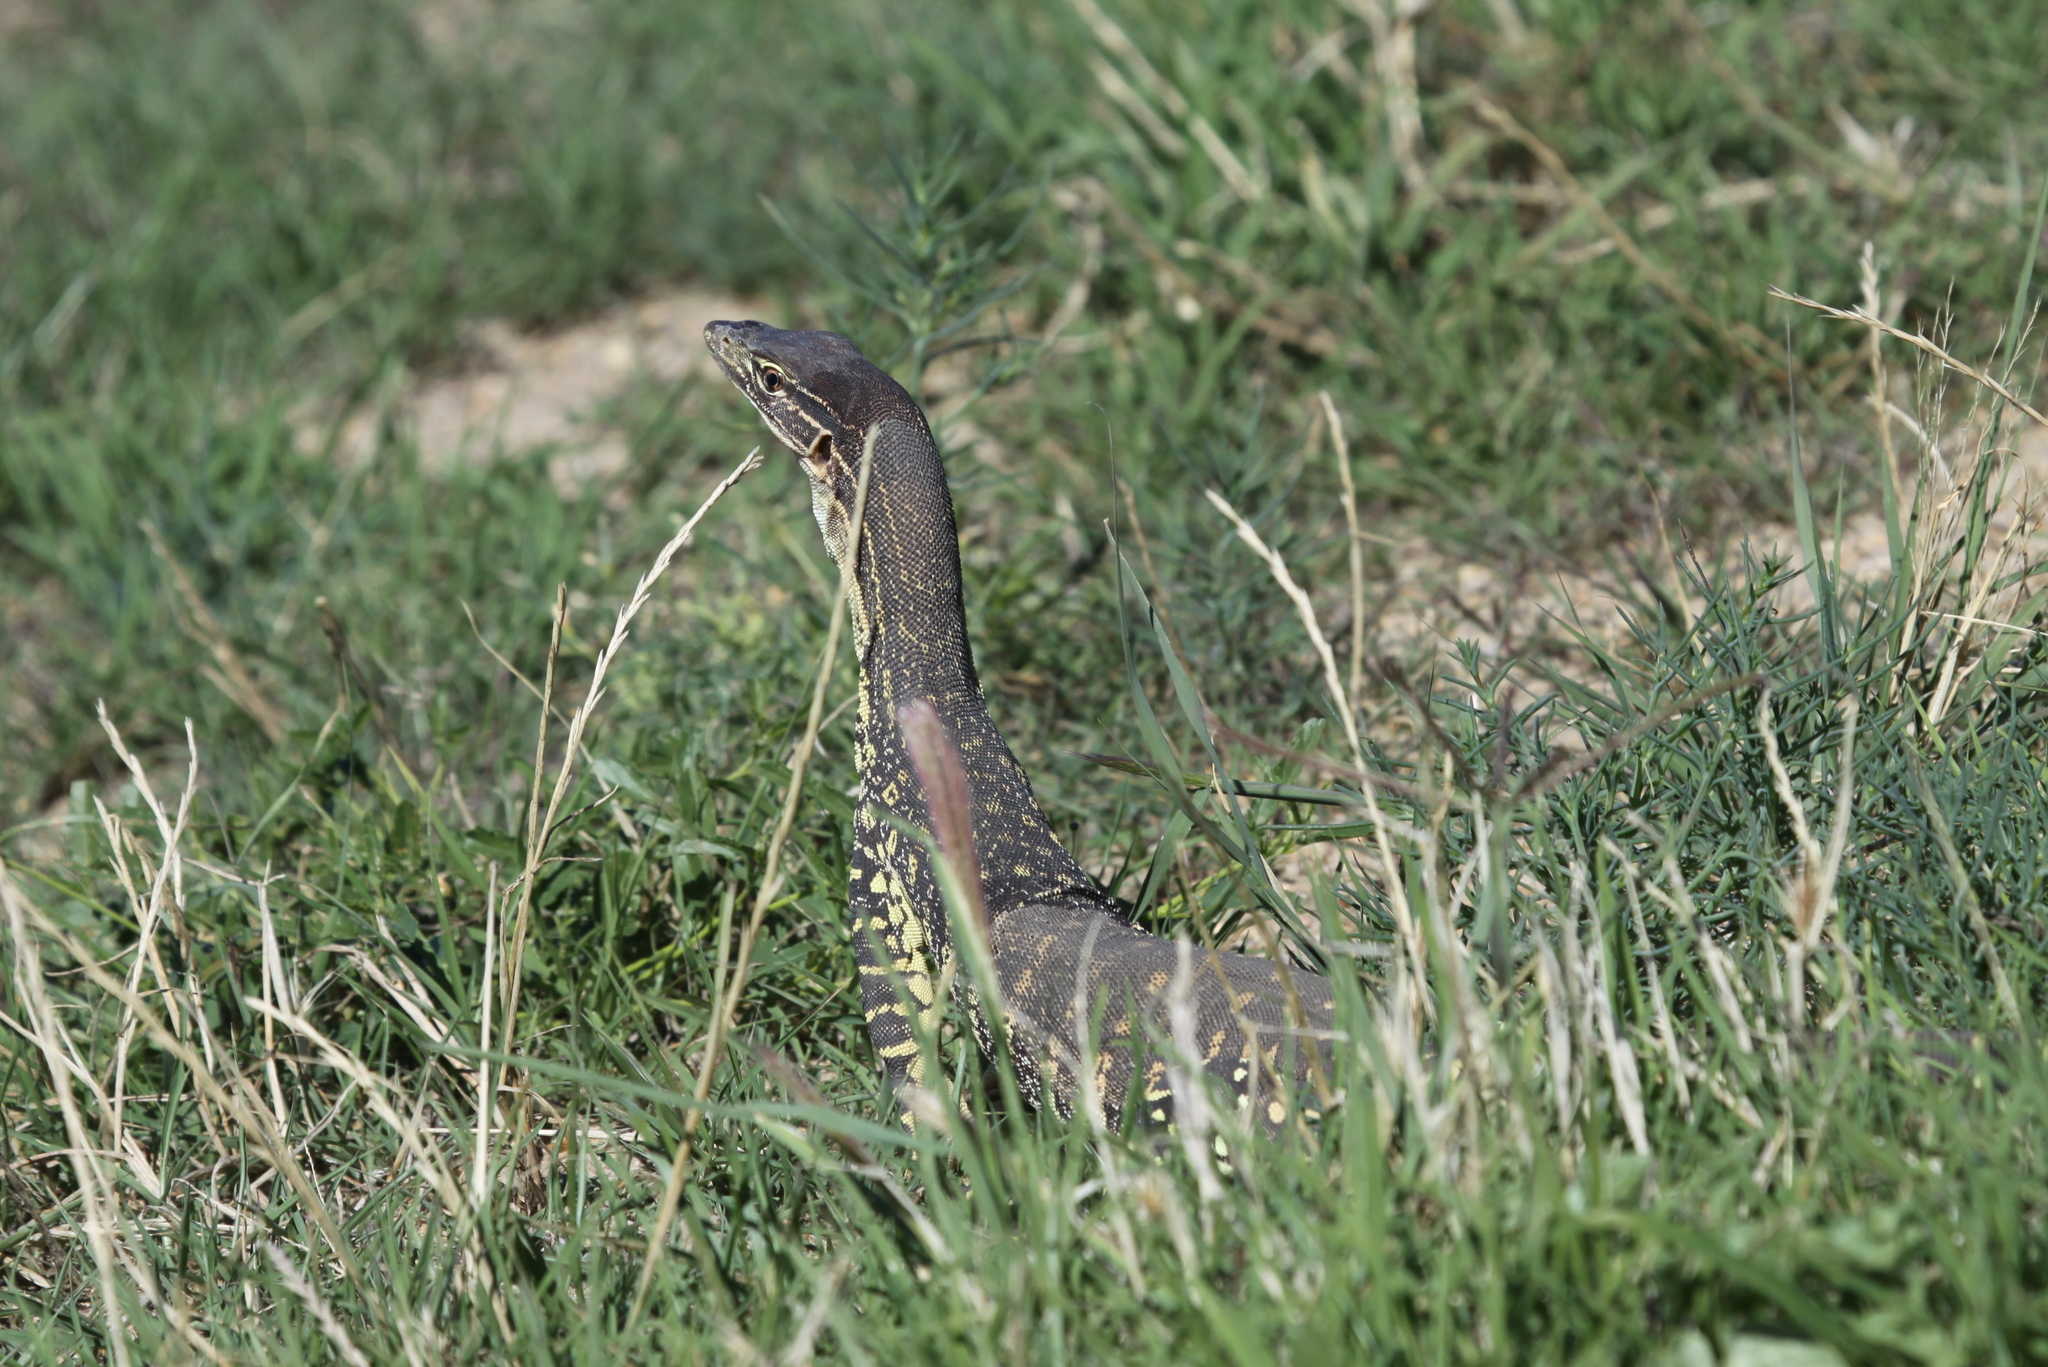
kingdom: Animalia
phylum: Chordata
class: Squamata
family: Varanidae
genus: Varanus
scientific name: Varanus gouldii
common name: Gould's goanna
